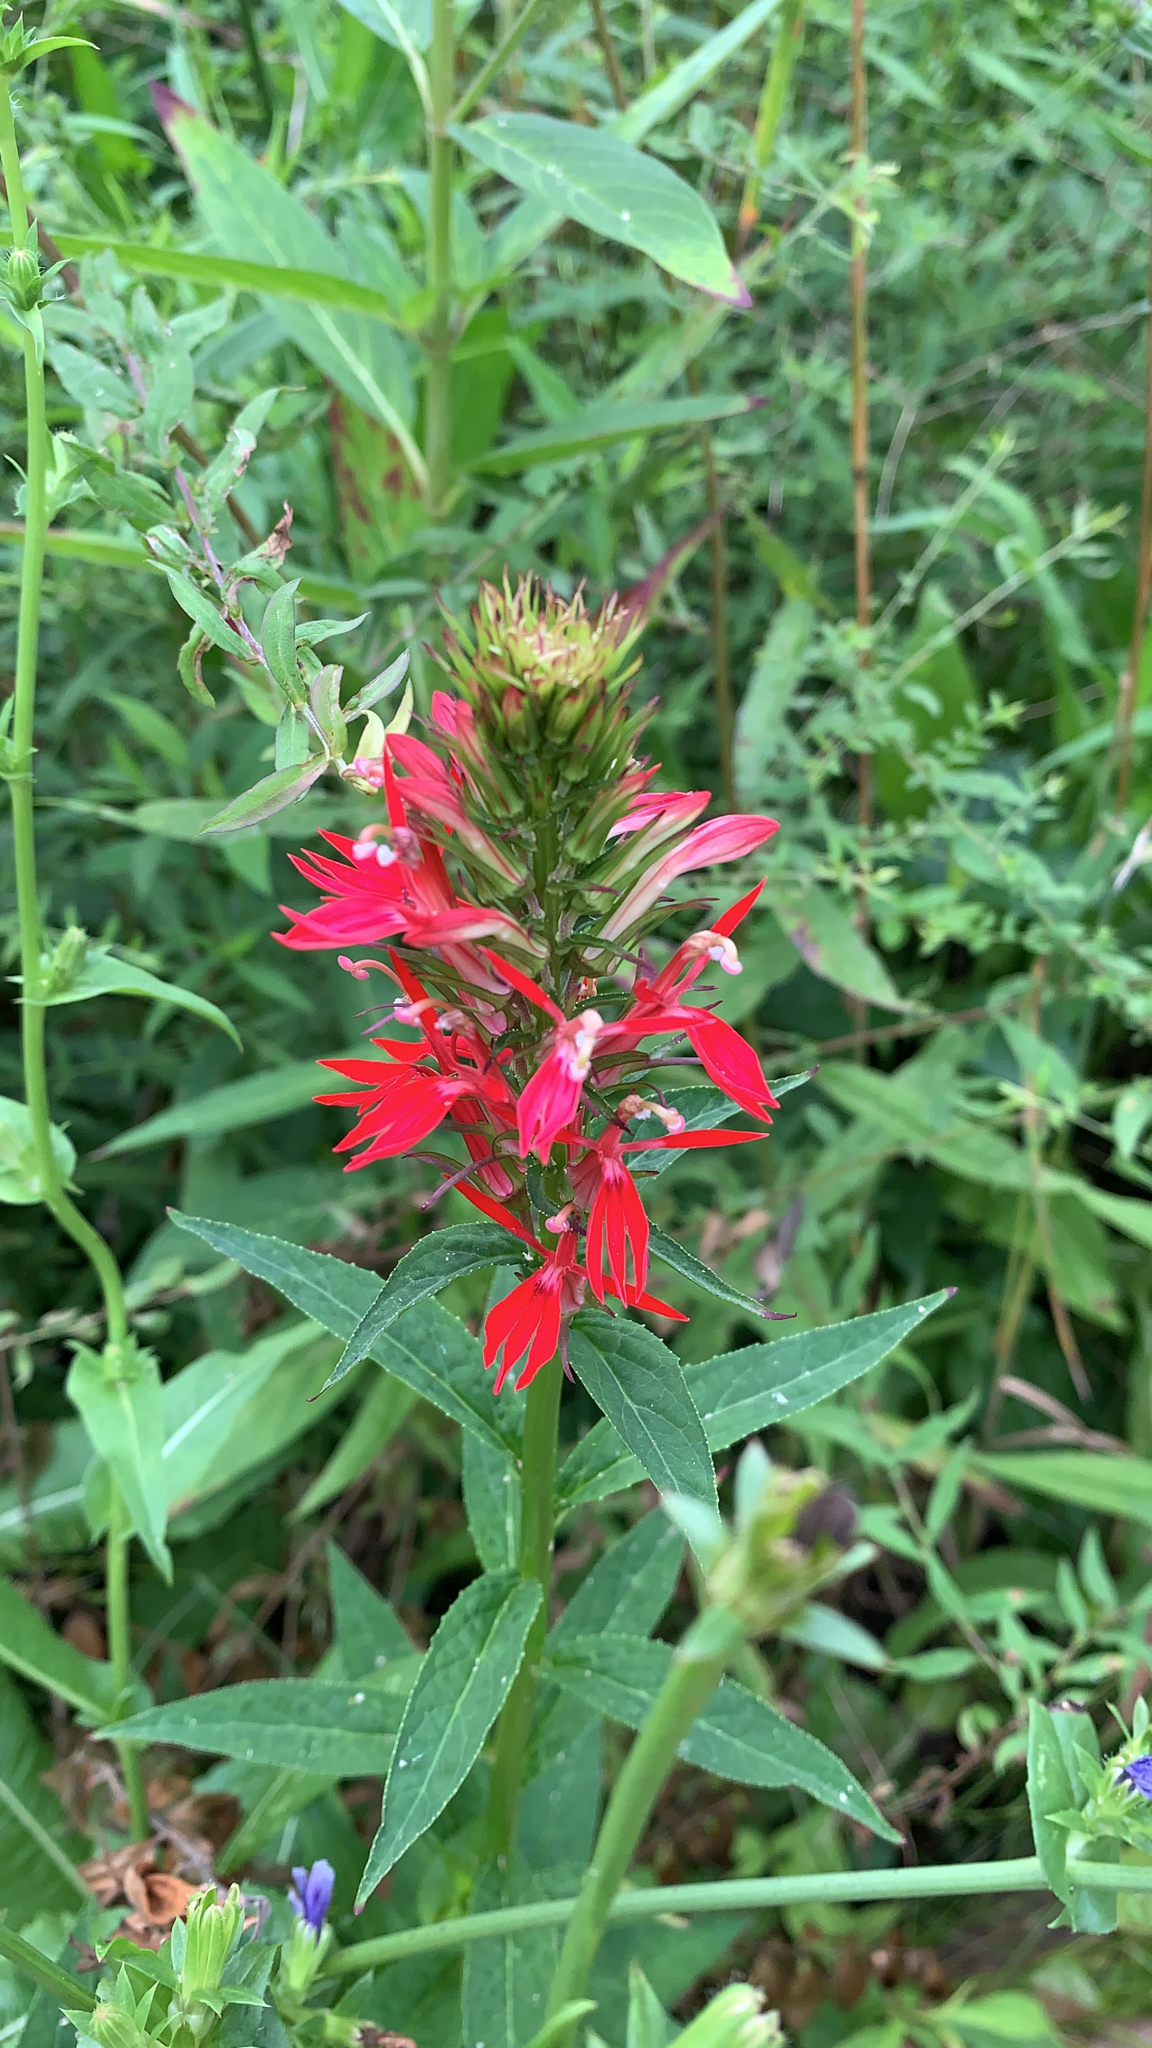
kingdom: Plantae
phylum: Tracheophyta
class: Magnoliopsida
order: Asterales
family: Campanulaceae
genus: Lobelia
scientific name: Lobelia cardinalis
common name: Cardinal flower
